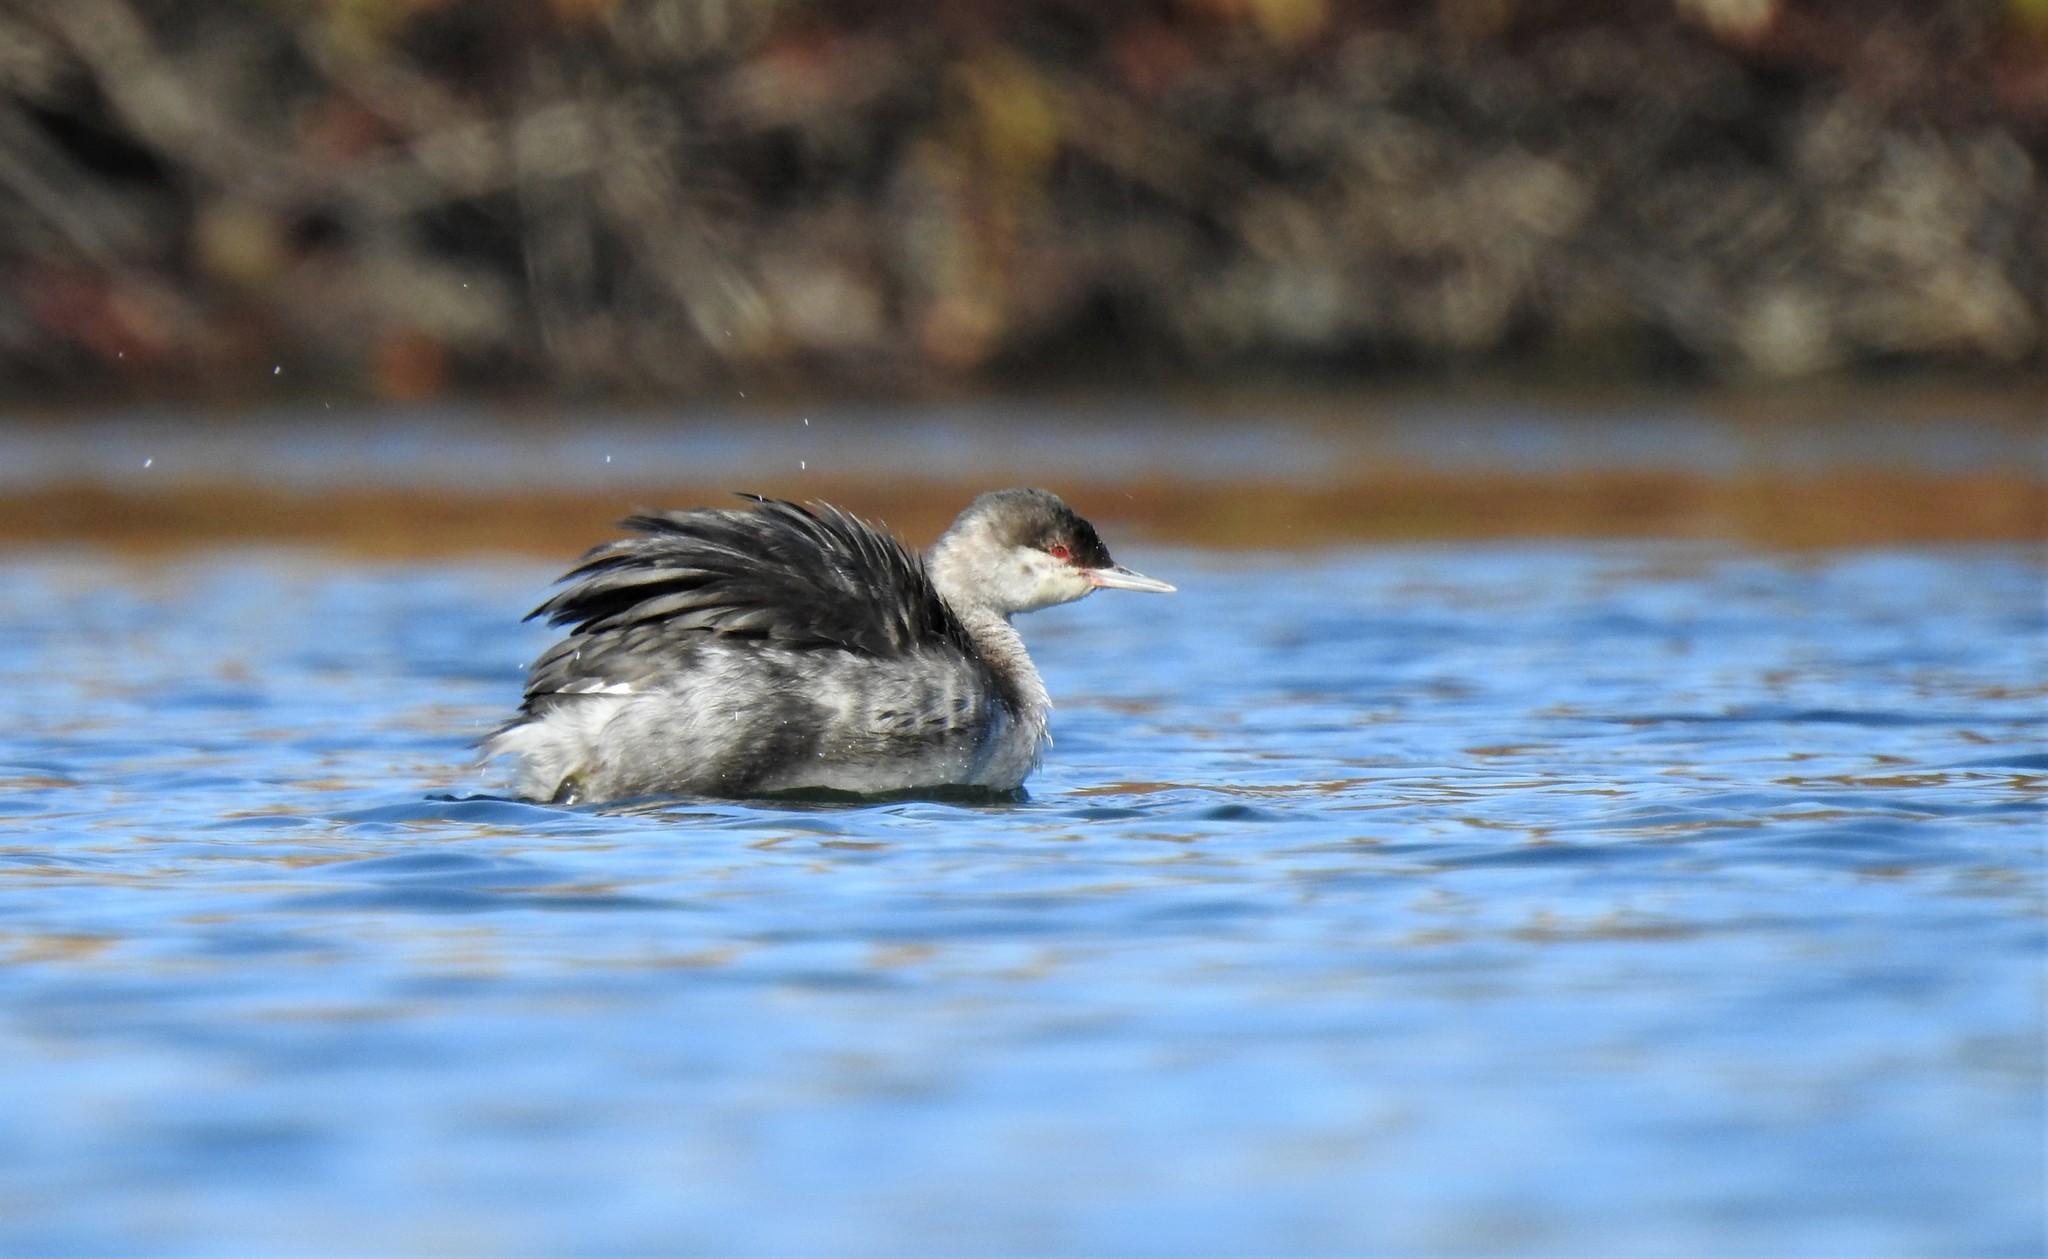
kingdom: Animalia
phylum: Chordata
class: Aves
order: Podicipediformes
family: Podicipedidae
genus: Podiceps
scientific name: Podiceps auritus
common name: Horned grebe
